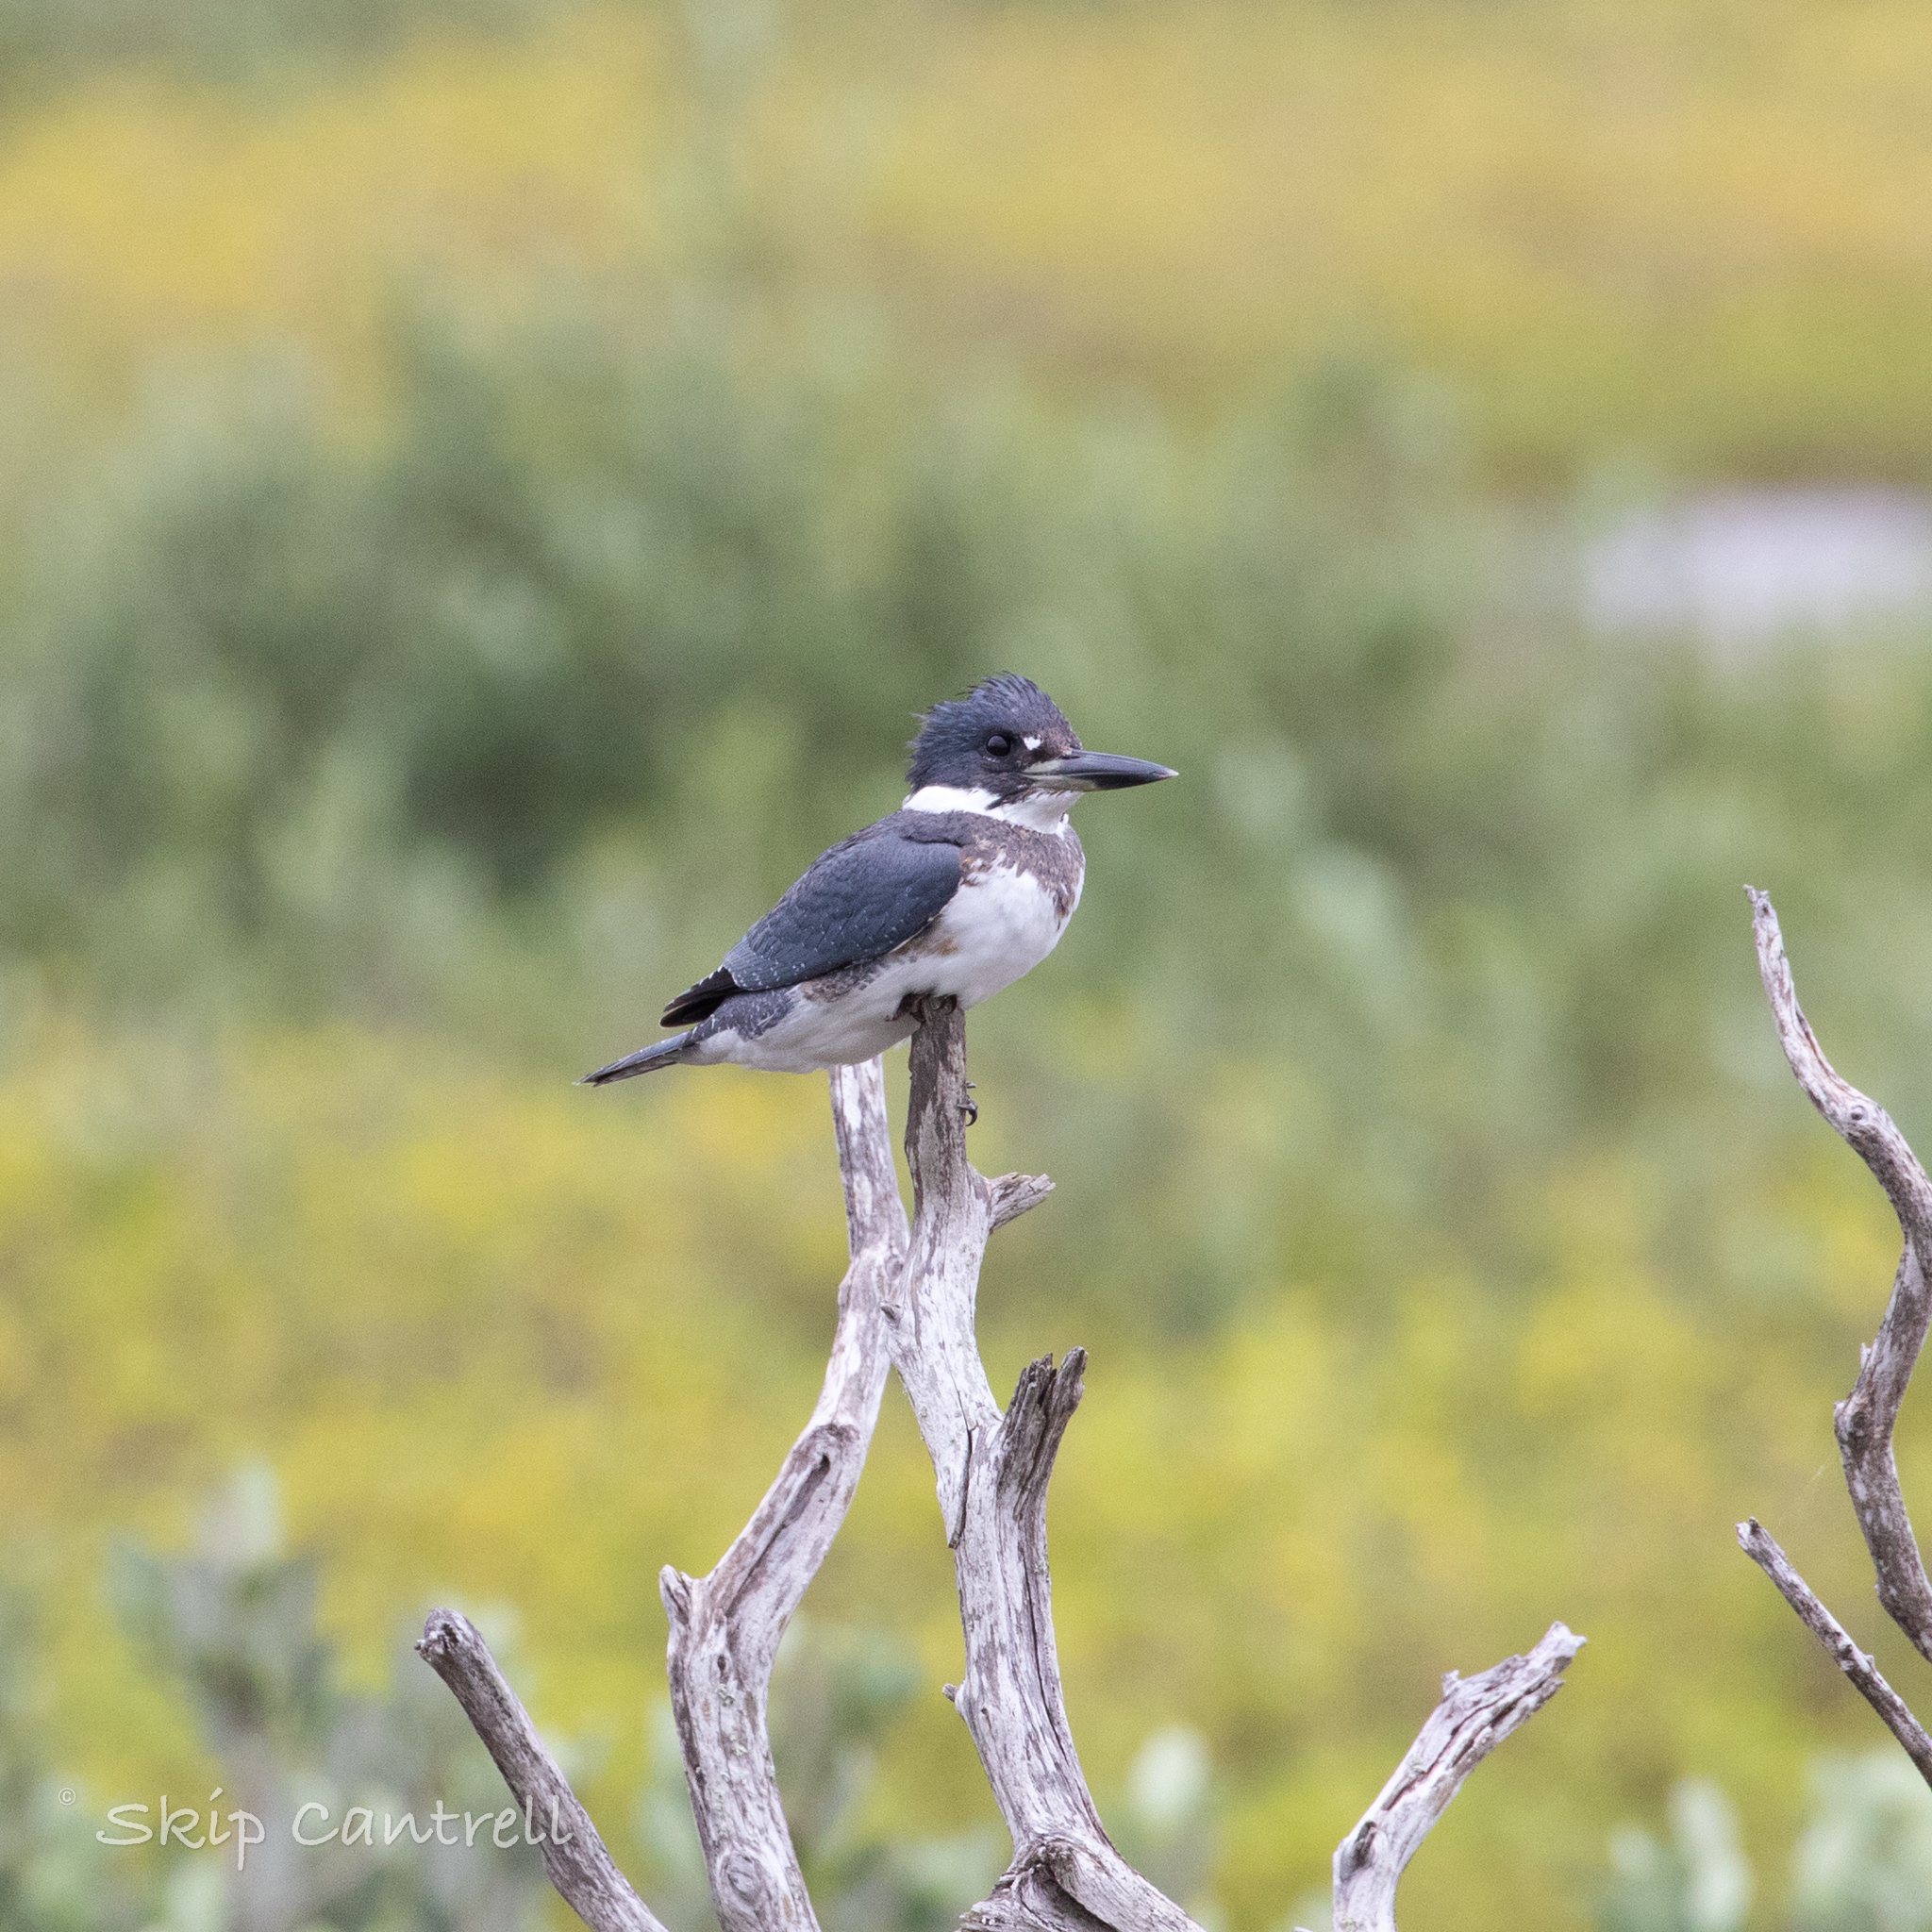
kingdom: Animalia
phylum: Chordata
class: Aves
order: Coraciiformes
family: Alcedinidae
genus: Megaceryle
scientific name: Megaceryle alcyon
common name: Belted kingfisher
